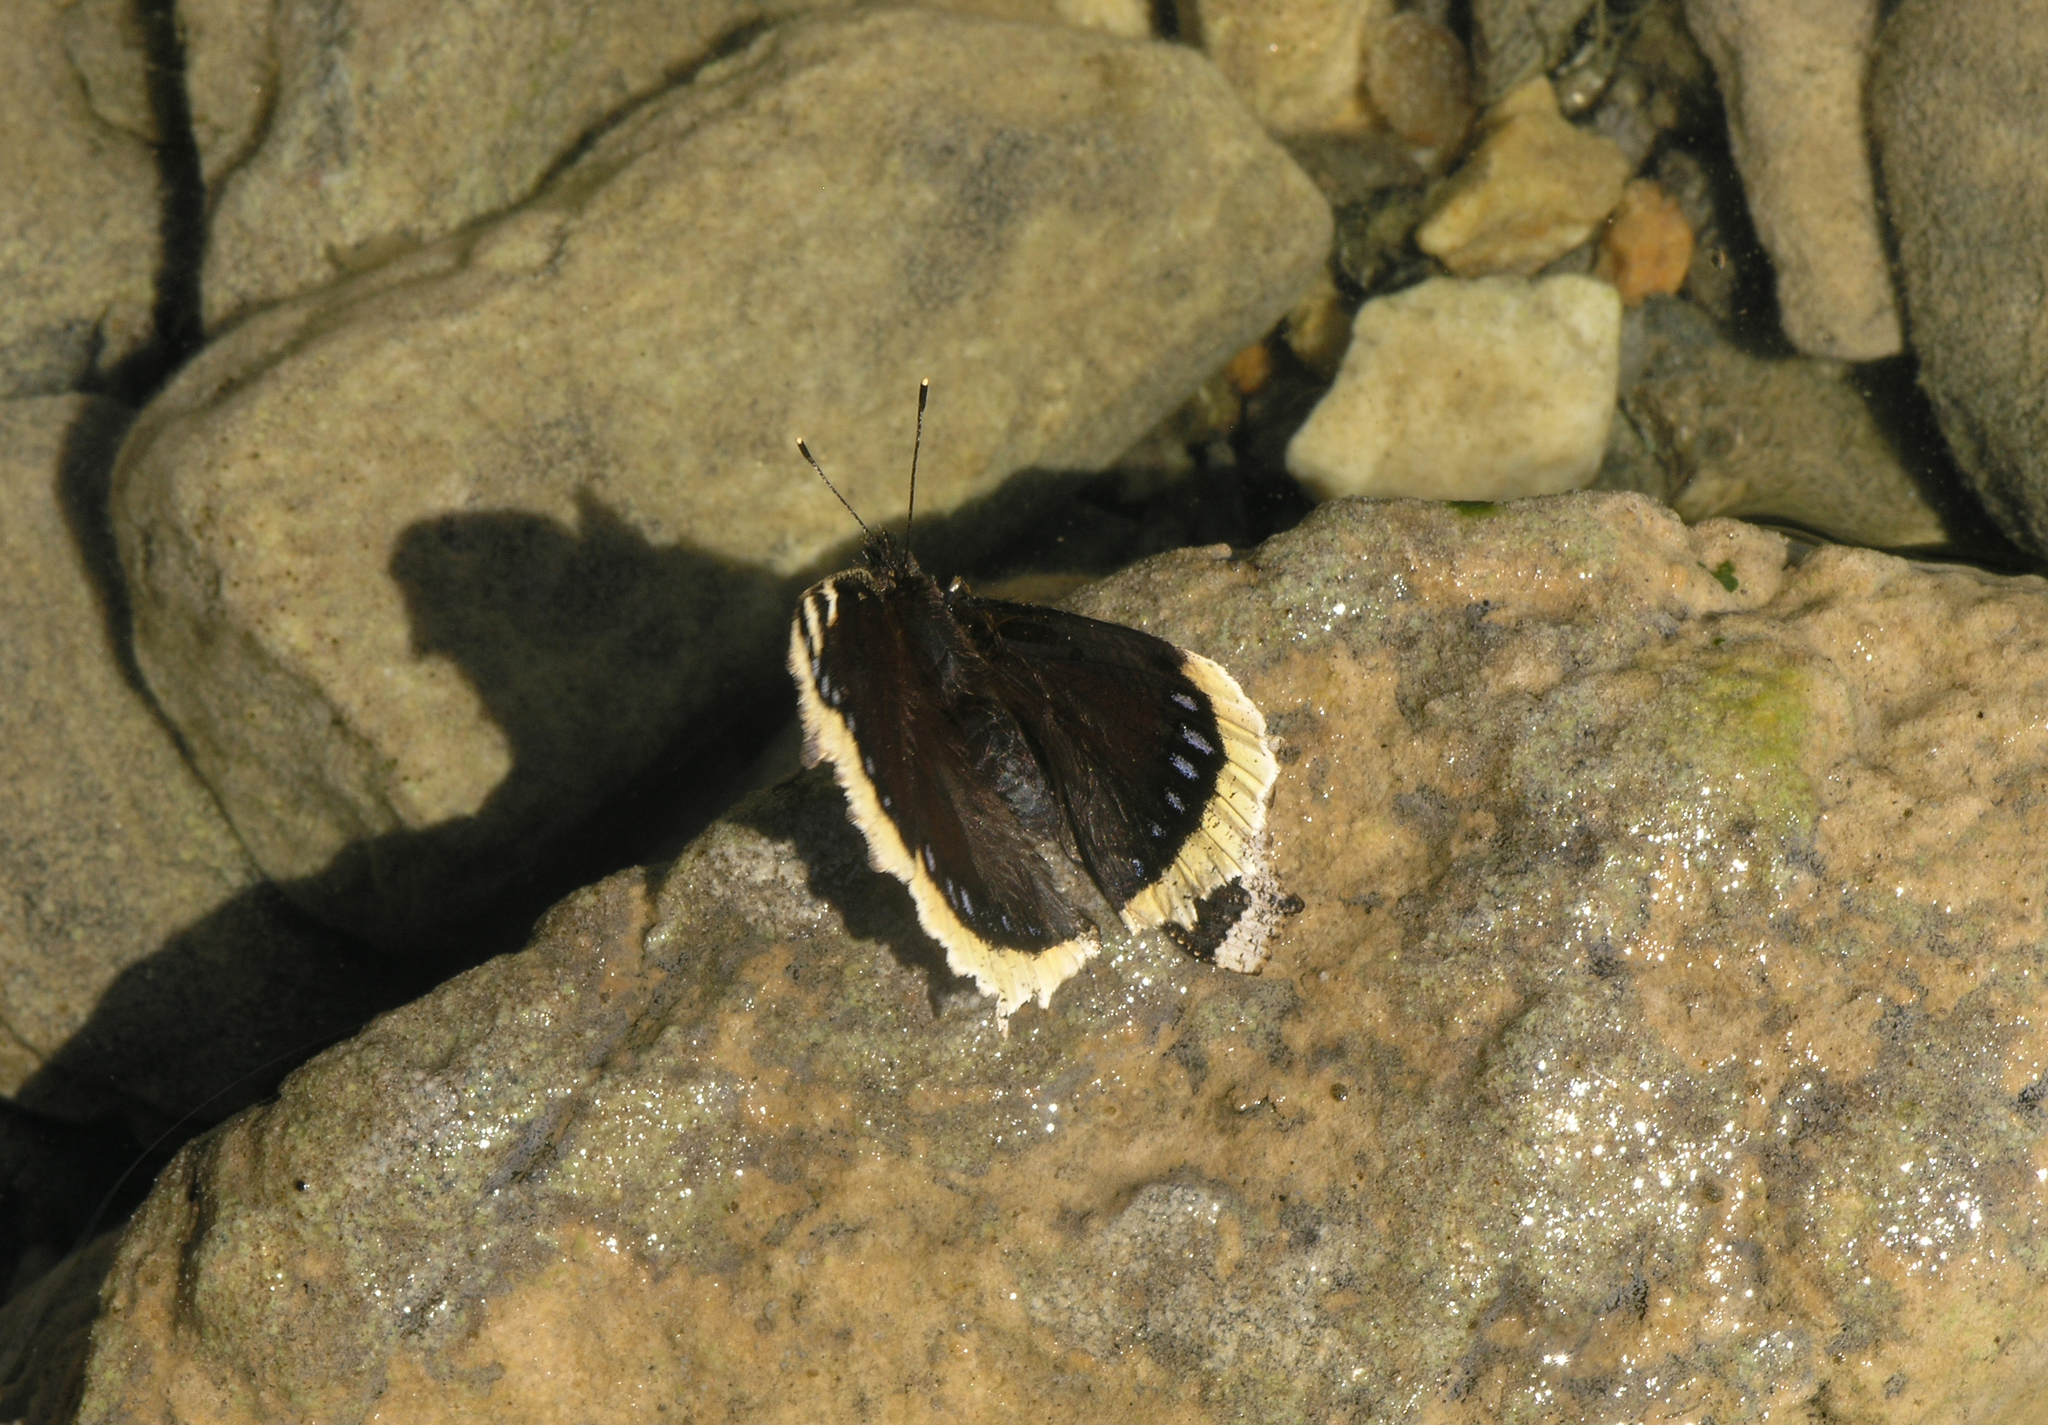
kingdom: Animalia
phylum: Arthropoda
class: Insecta
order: Lepidoptera
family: Nymphalidae
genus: Nymphalis
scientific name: Nymphalis antiopa
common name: Camberwell beauty
